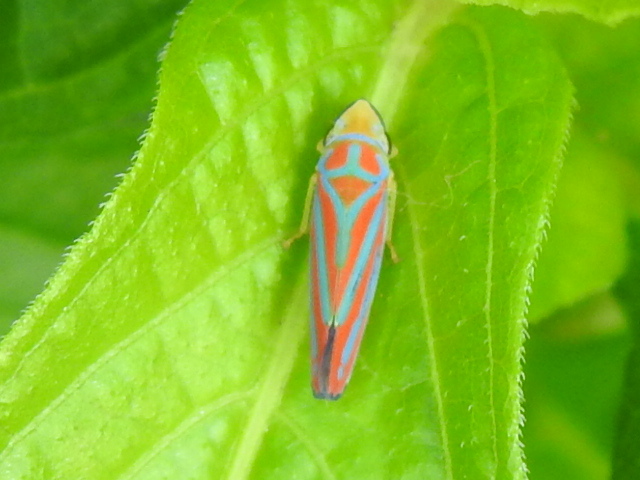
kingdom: Animalia
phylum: Arthropoda
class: Insecta
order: Hemiptera
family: Cicadellidae
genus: Graphocephala
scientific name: Graphocephala coccinea
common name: Candy-striped leafhopper
